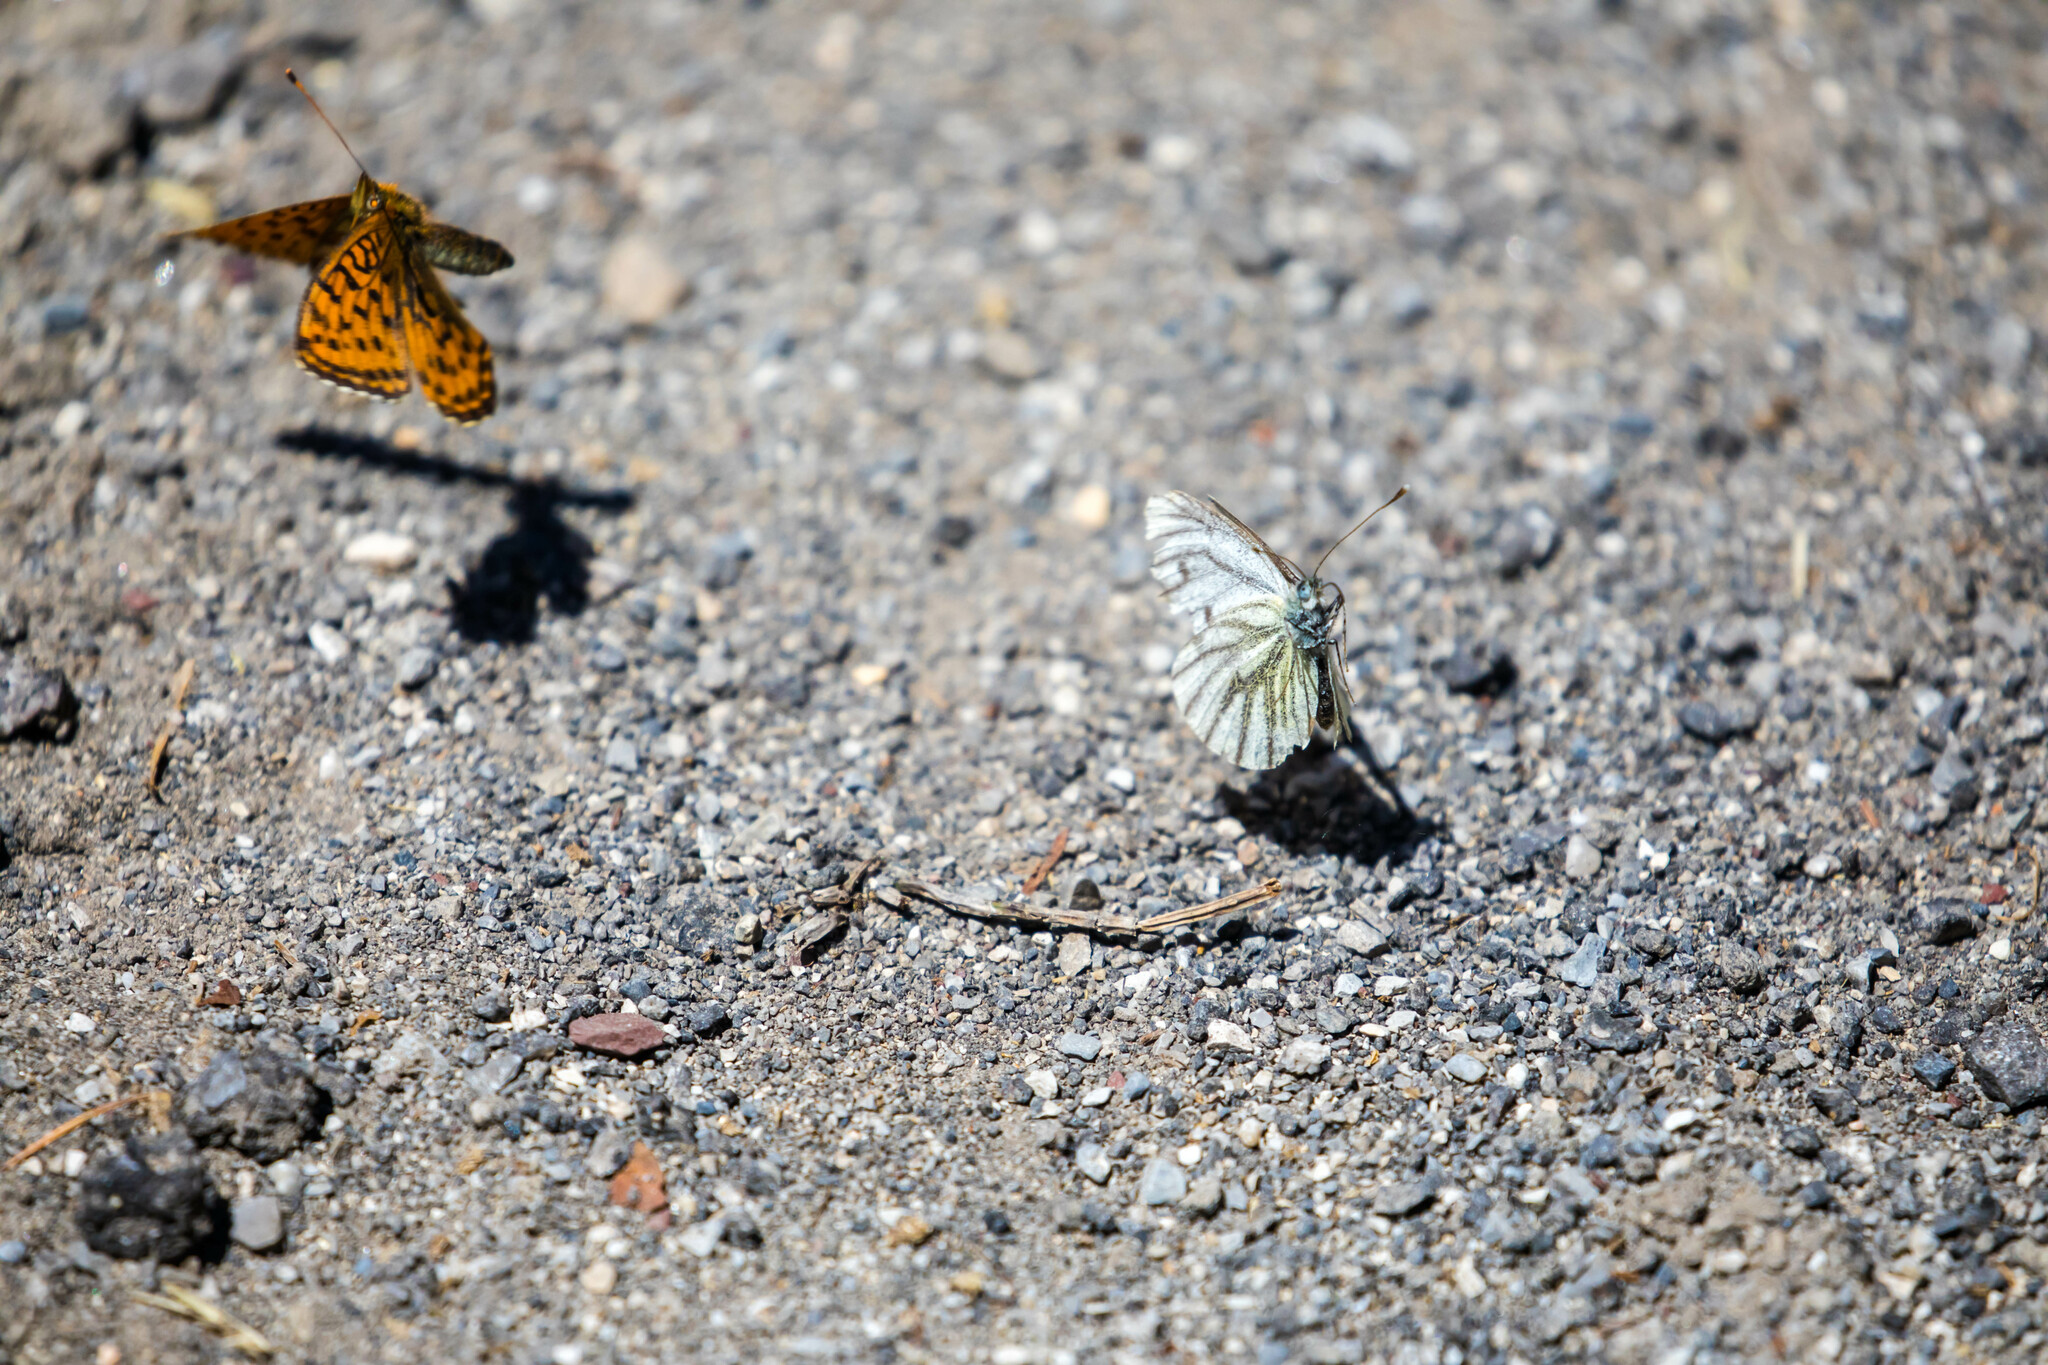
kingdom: Animalia
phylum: Arthropoda
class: Insecta
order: Lepidoptera
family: Pieridae
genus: Pieris
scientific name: Pieris bryoniae
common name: Mountain green-veined white
